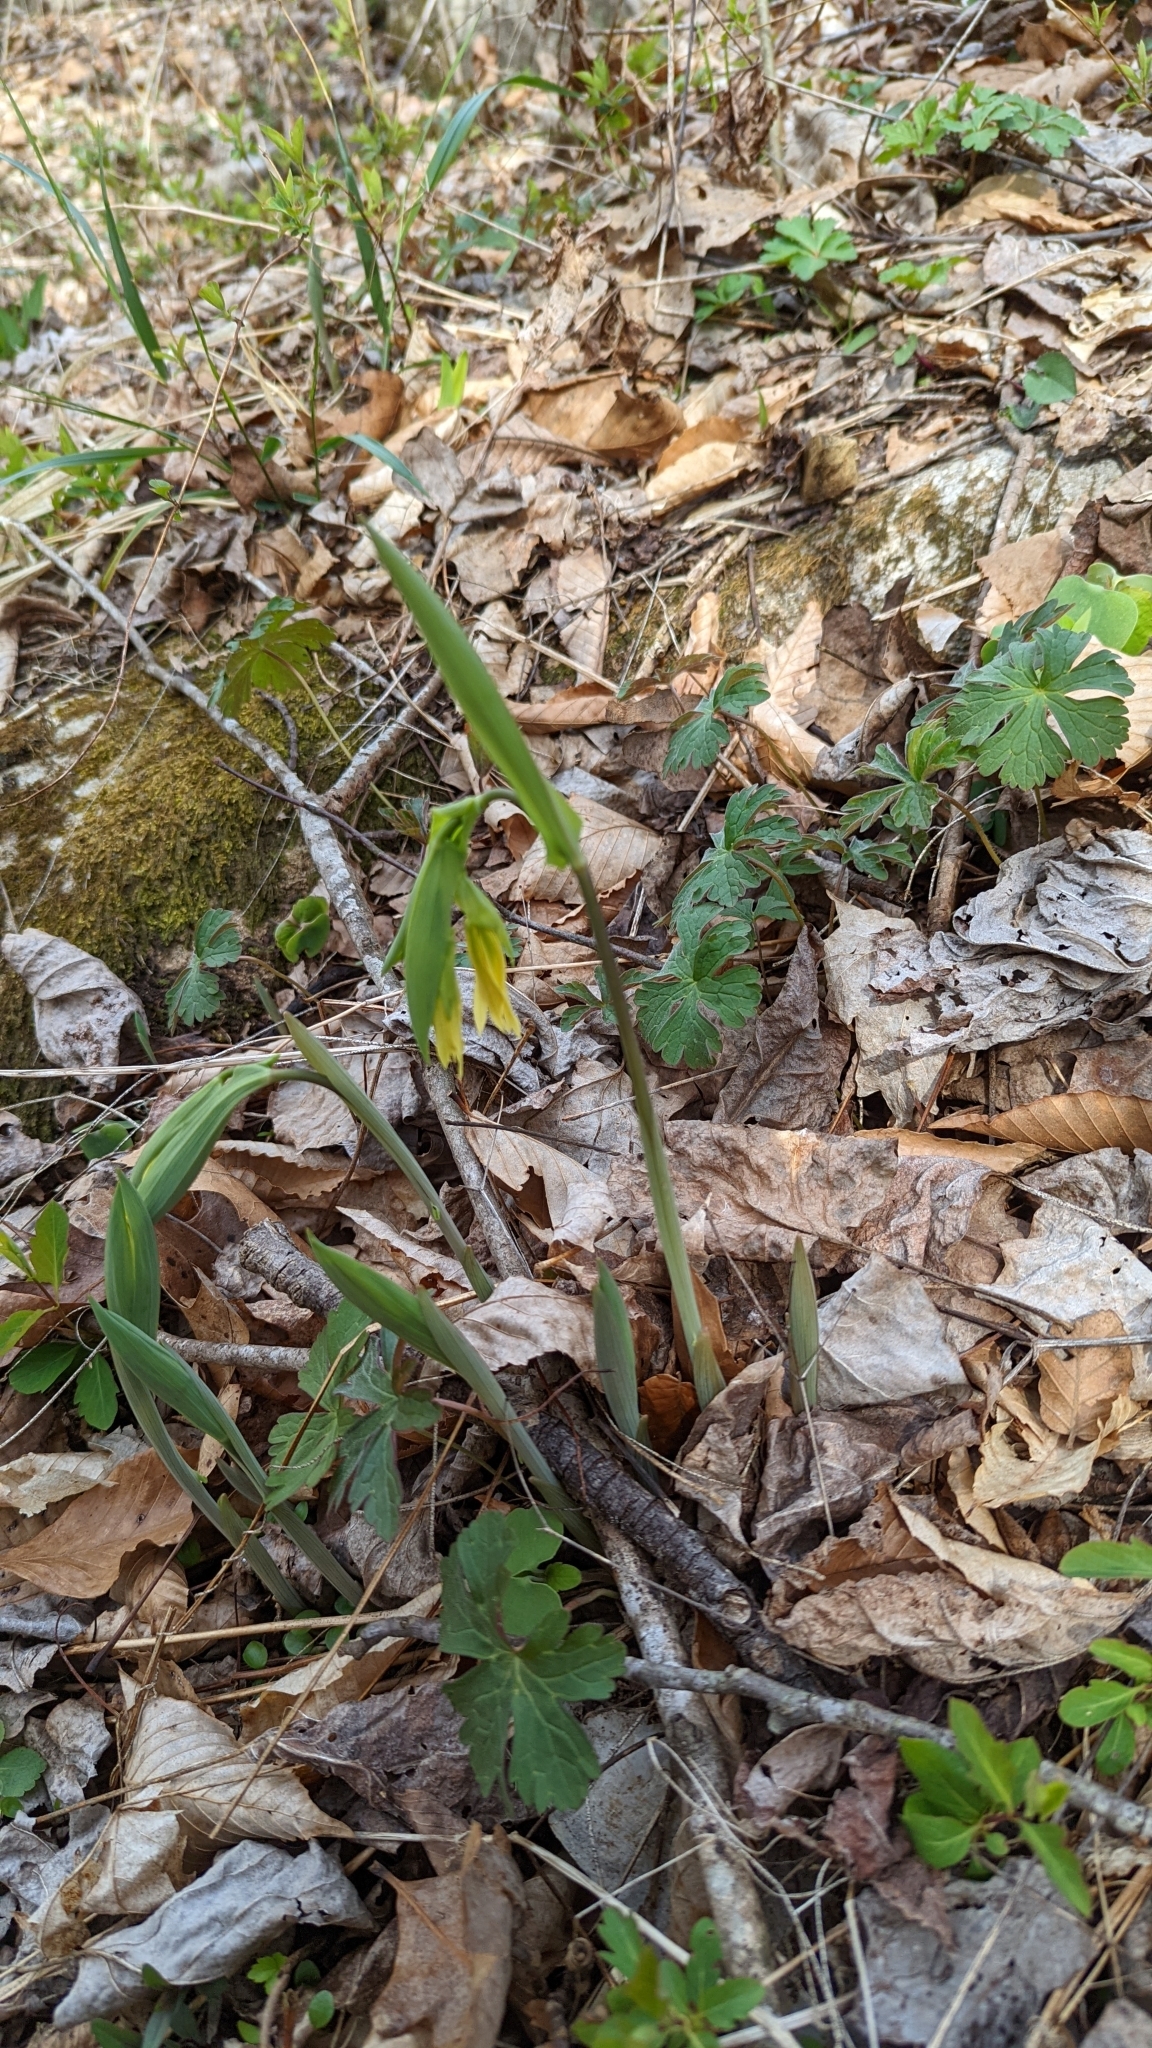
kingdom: Plantae
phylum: Tracheophyta
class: Liliopsida
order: Liliales
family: Colchicaceae
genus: Uvularia
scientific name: Uvularia grandiflora
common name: Bellwort
